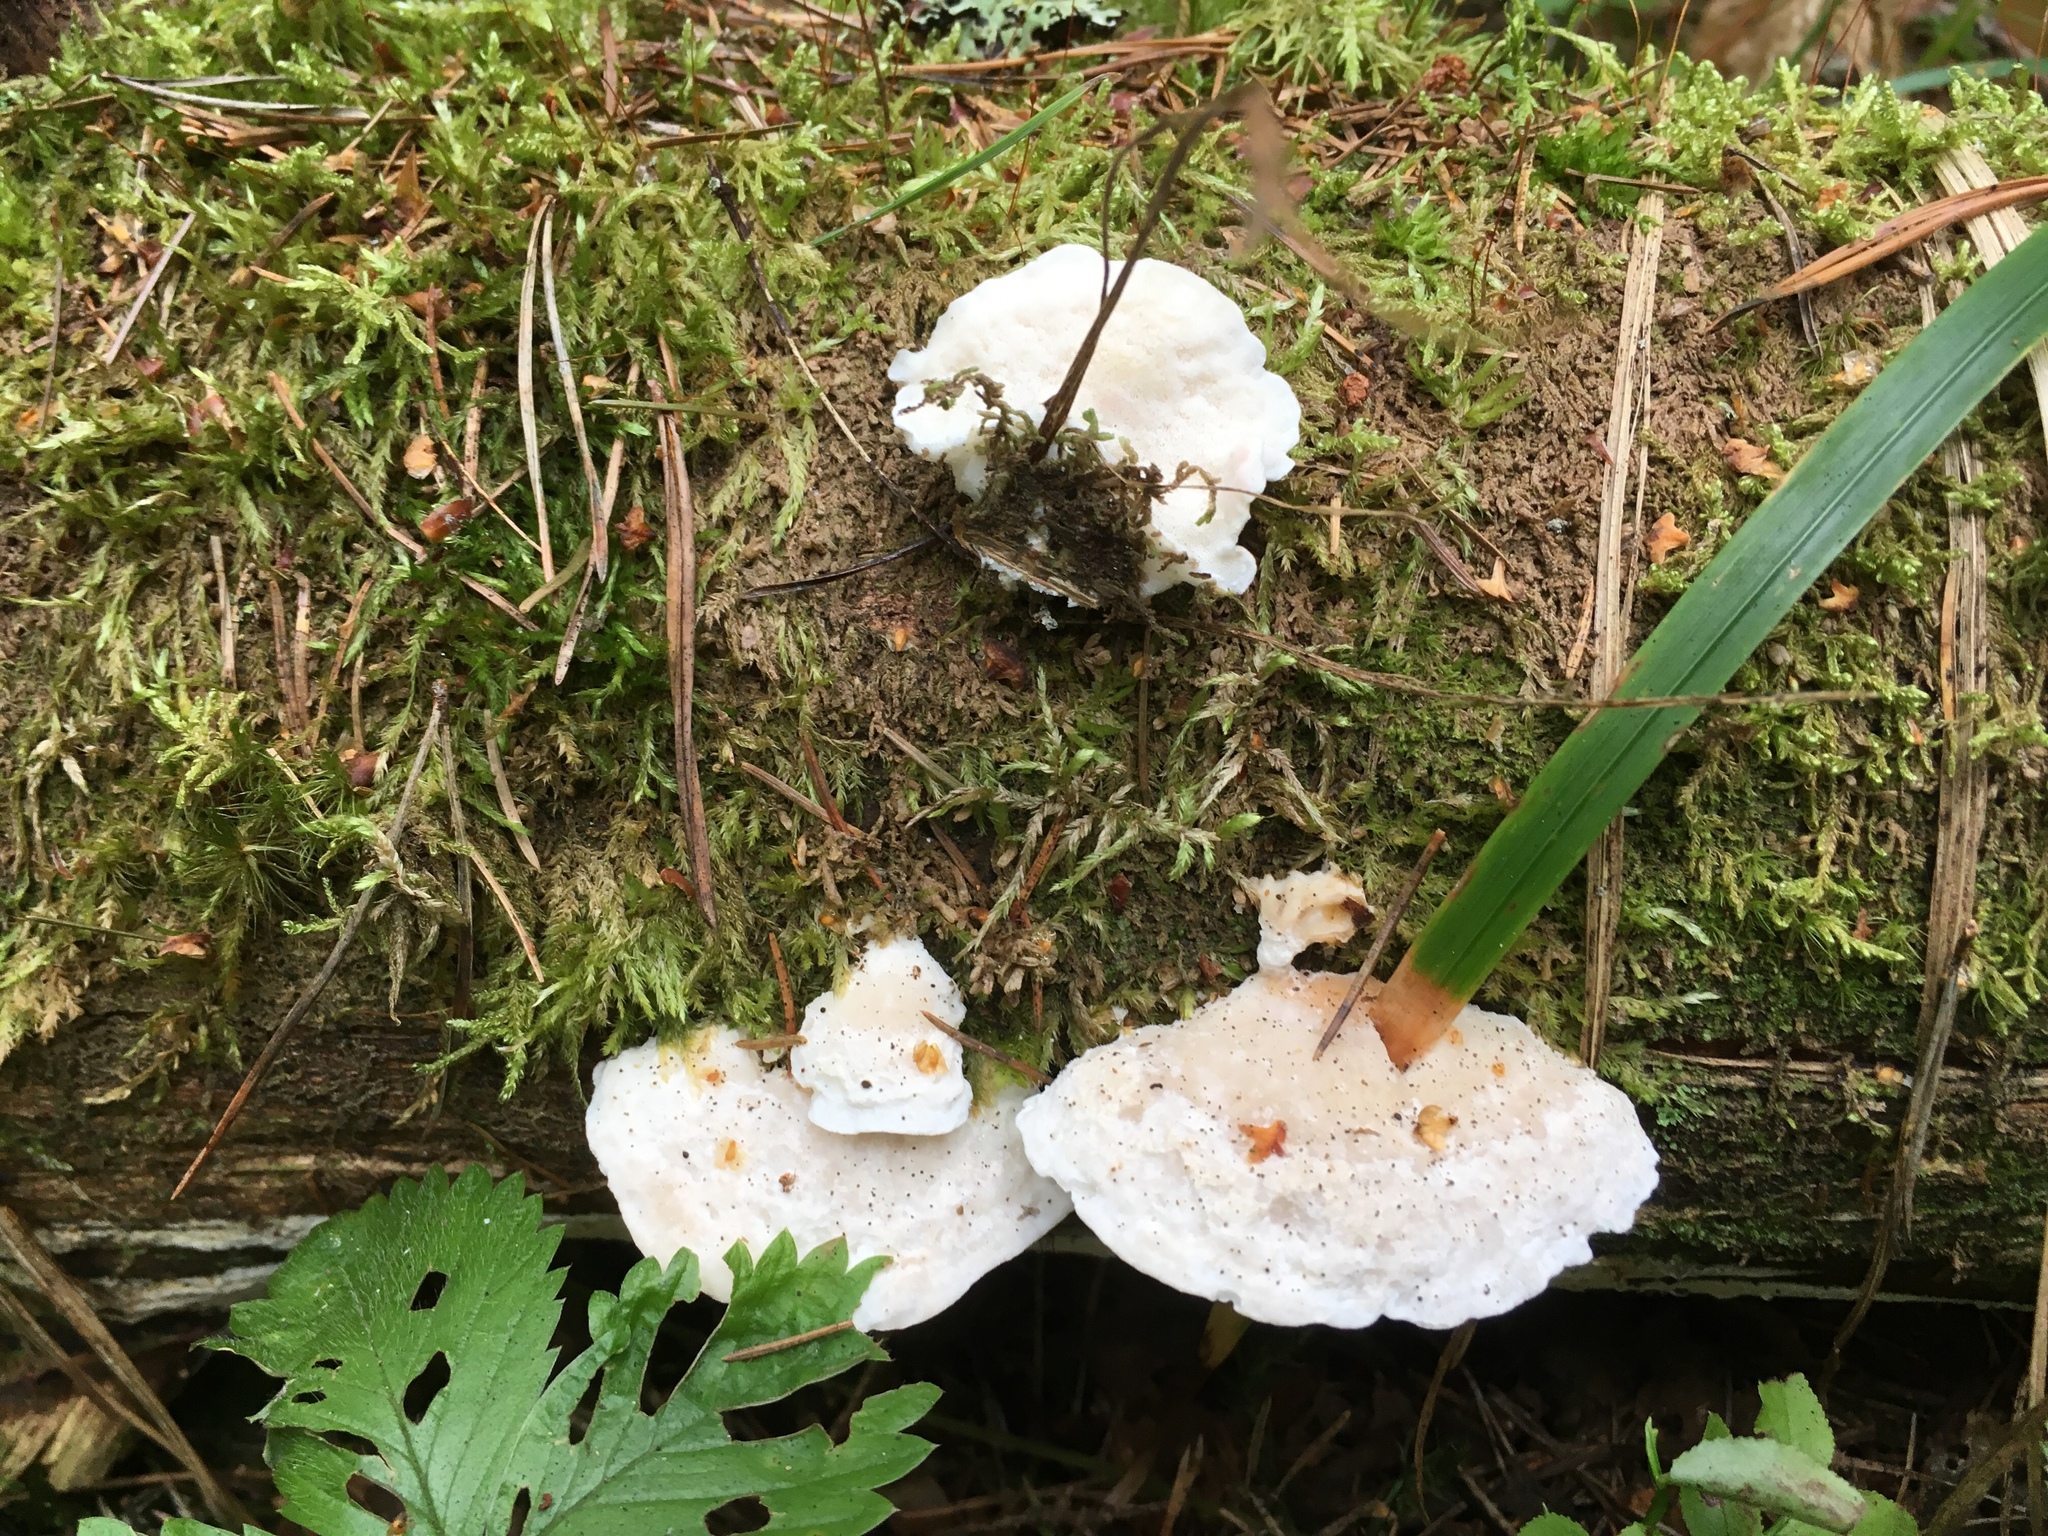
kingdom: Fungi
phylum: Basidiomycota
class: Agaricomycetes
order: Polyporales
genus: Amaropostia
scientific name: Amaropostia stiptica
